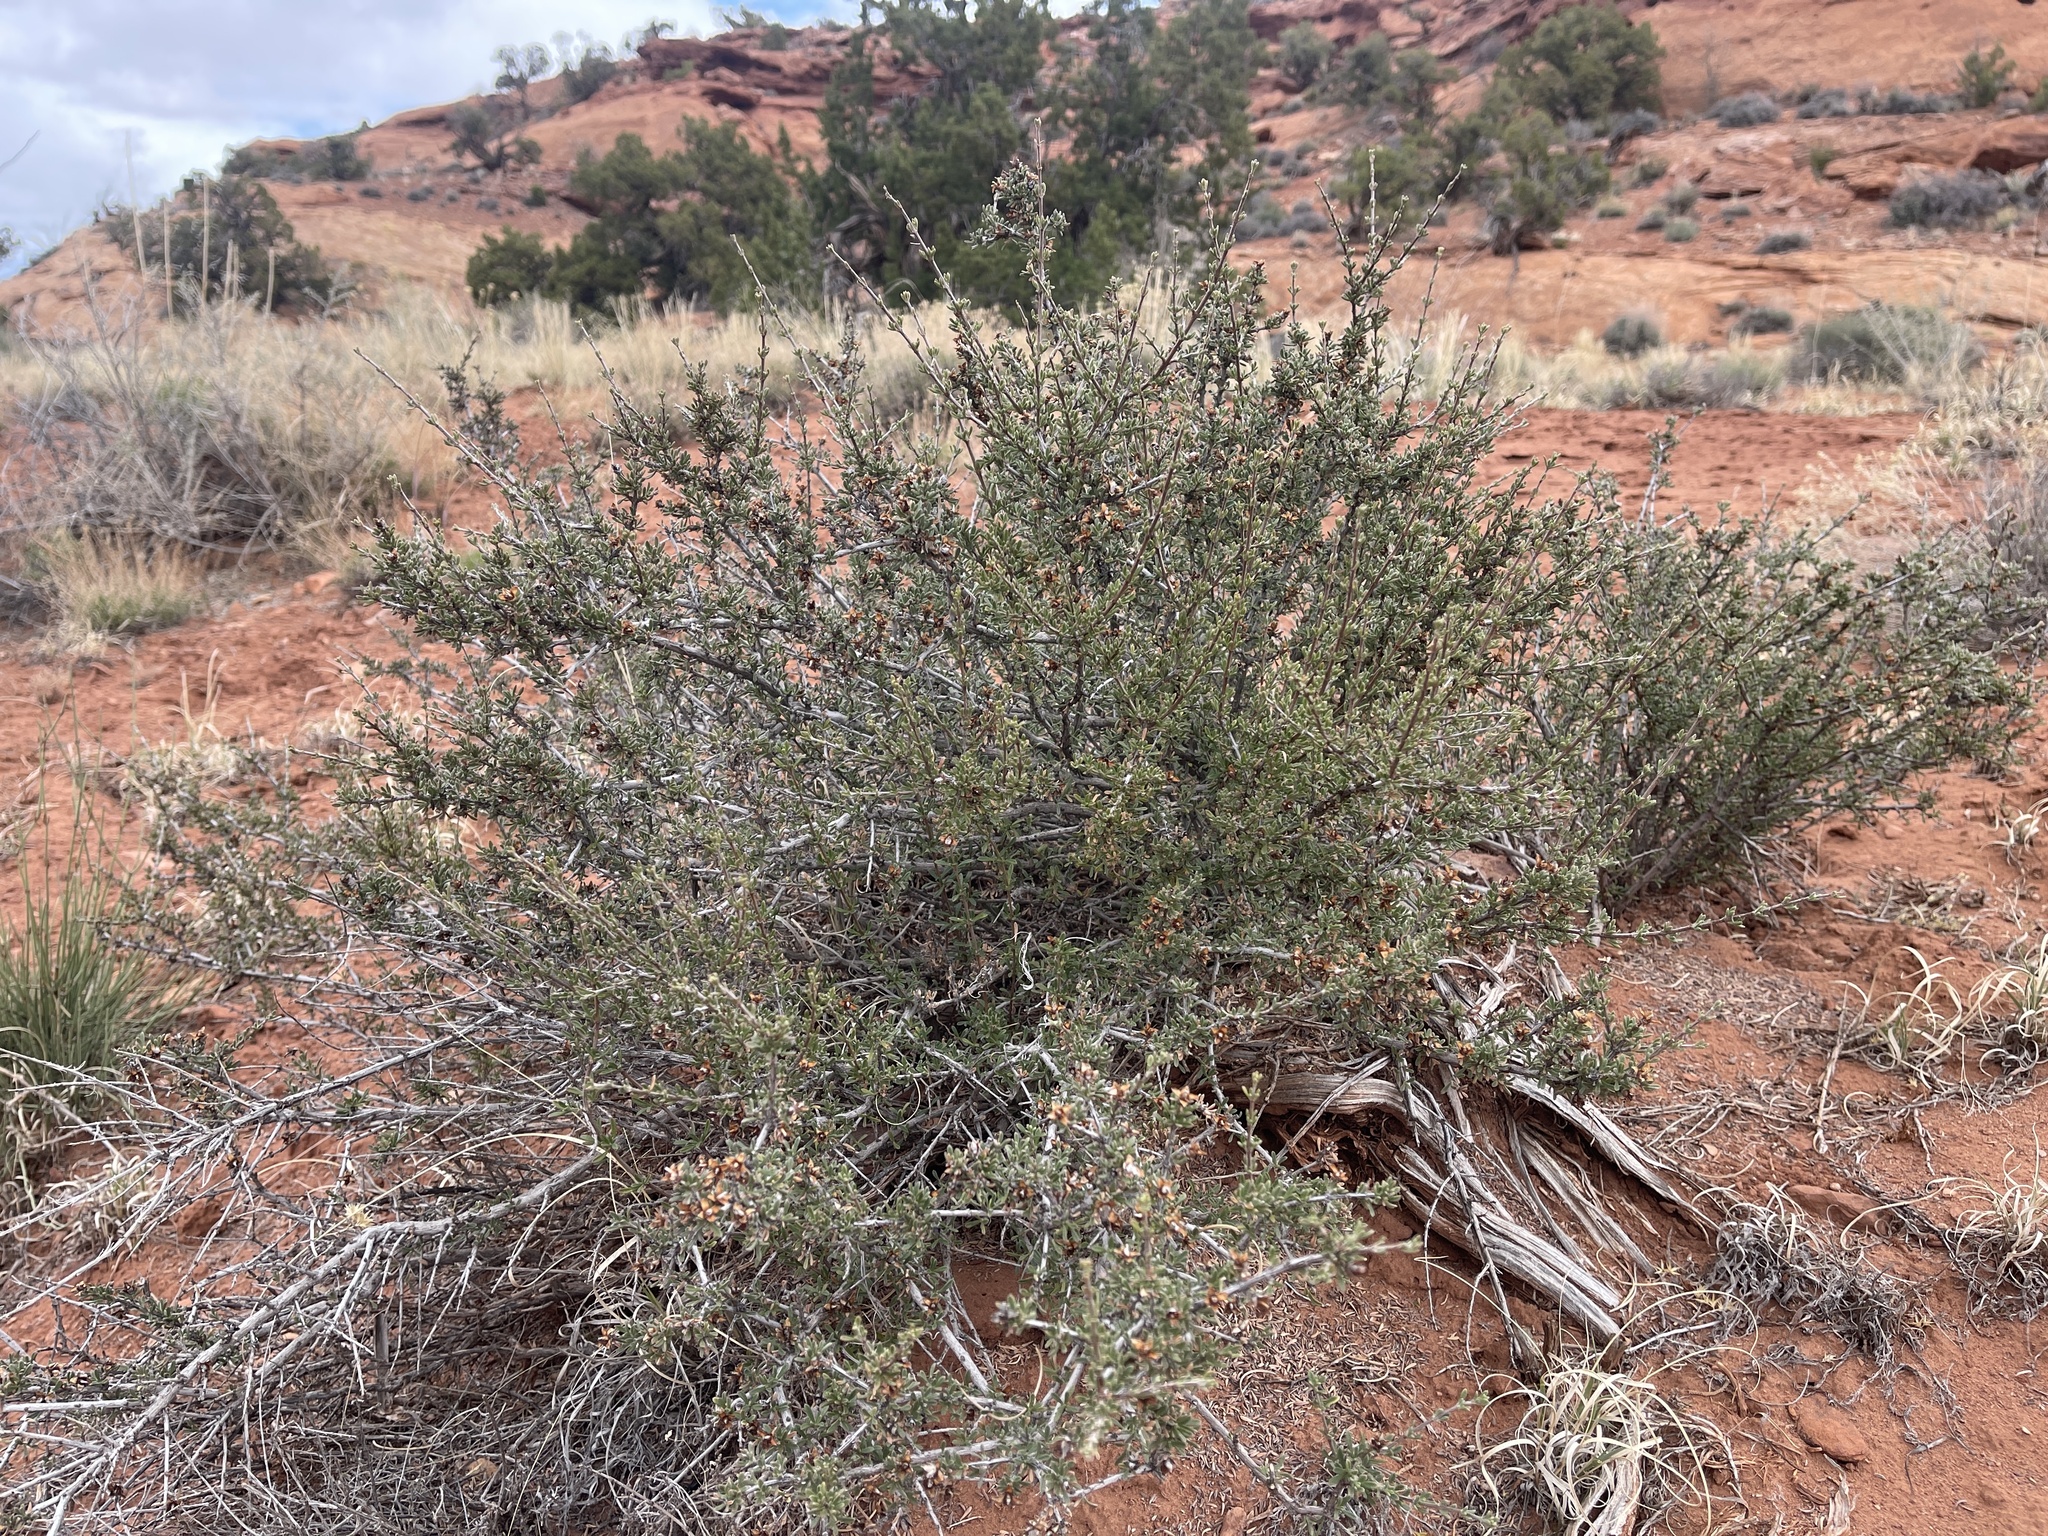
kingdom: Plantae
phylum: Tracheophyta
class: Magnoliopsida
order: Rosales
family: Rosaceae
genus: Coleogyne
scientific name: Coleogyne ramosissima
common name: Blackbrush
